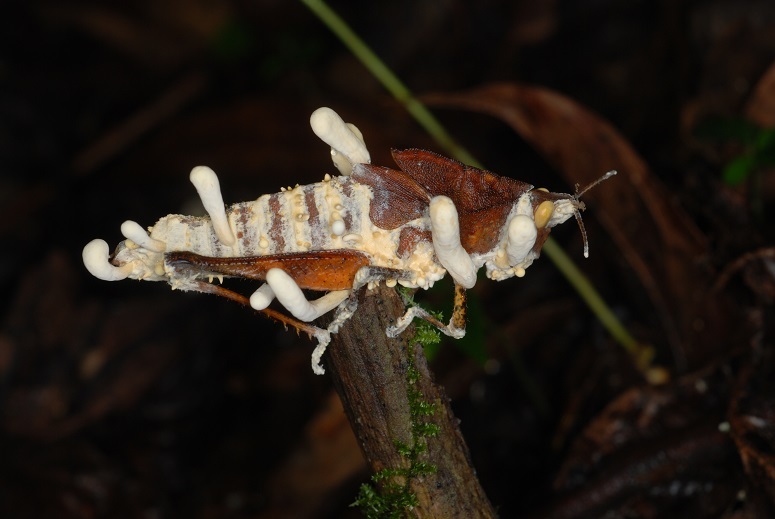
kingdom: Fungi
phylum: Ascomycota
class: Sordariomycetes
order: Hypocreales
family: Cordycipitaceae
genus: Beauveria
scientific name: Beauveria locustiphila
